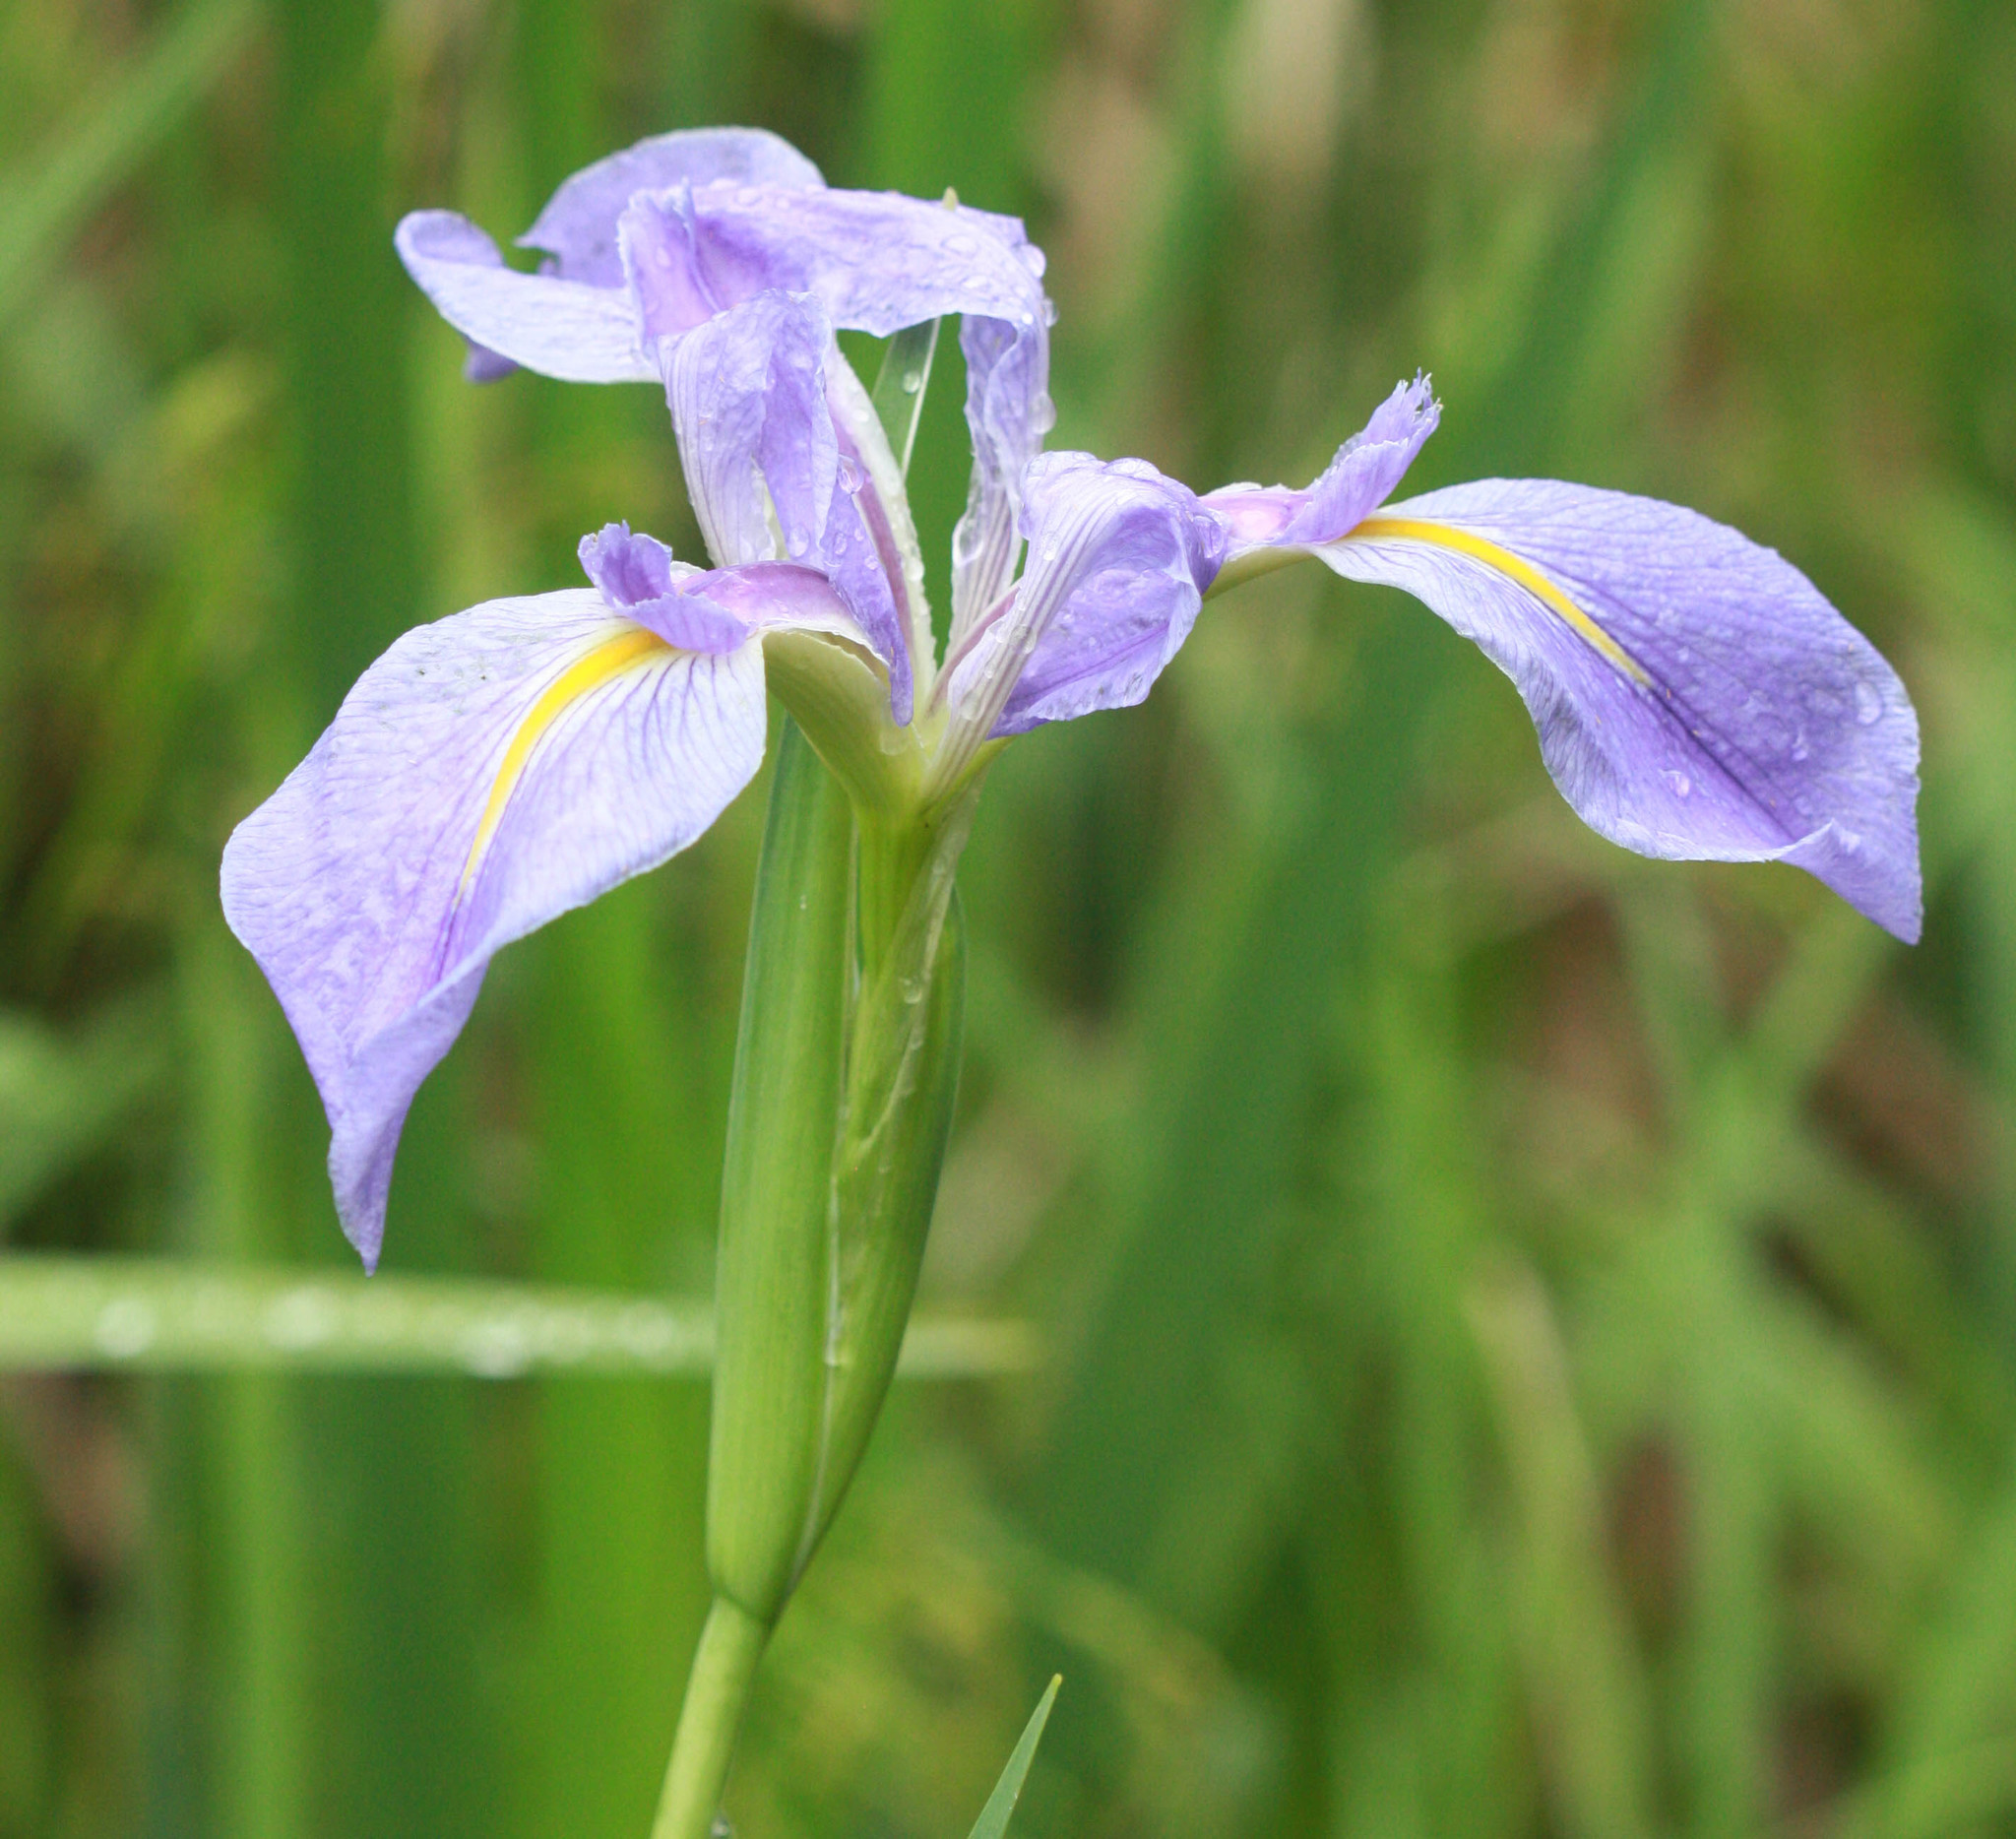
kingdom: Plantae
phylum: Tracheophyta
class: Liliopsida
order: Asparagales
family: Iridaceae
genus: Iris
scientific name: Iris giganticaerulea
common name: Giant blue iris
